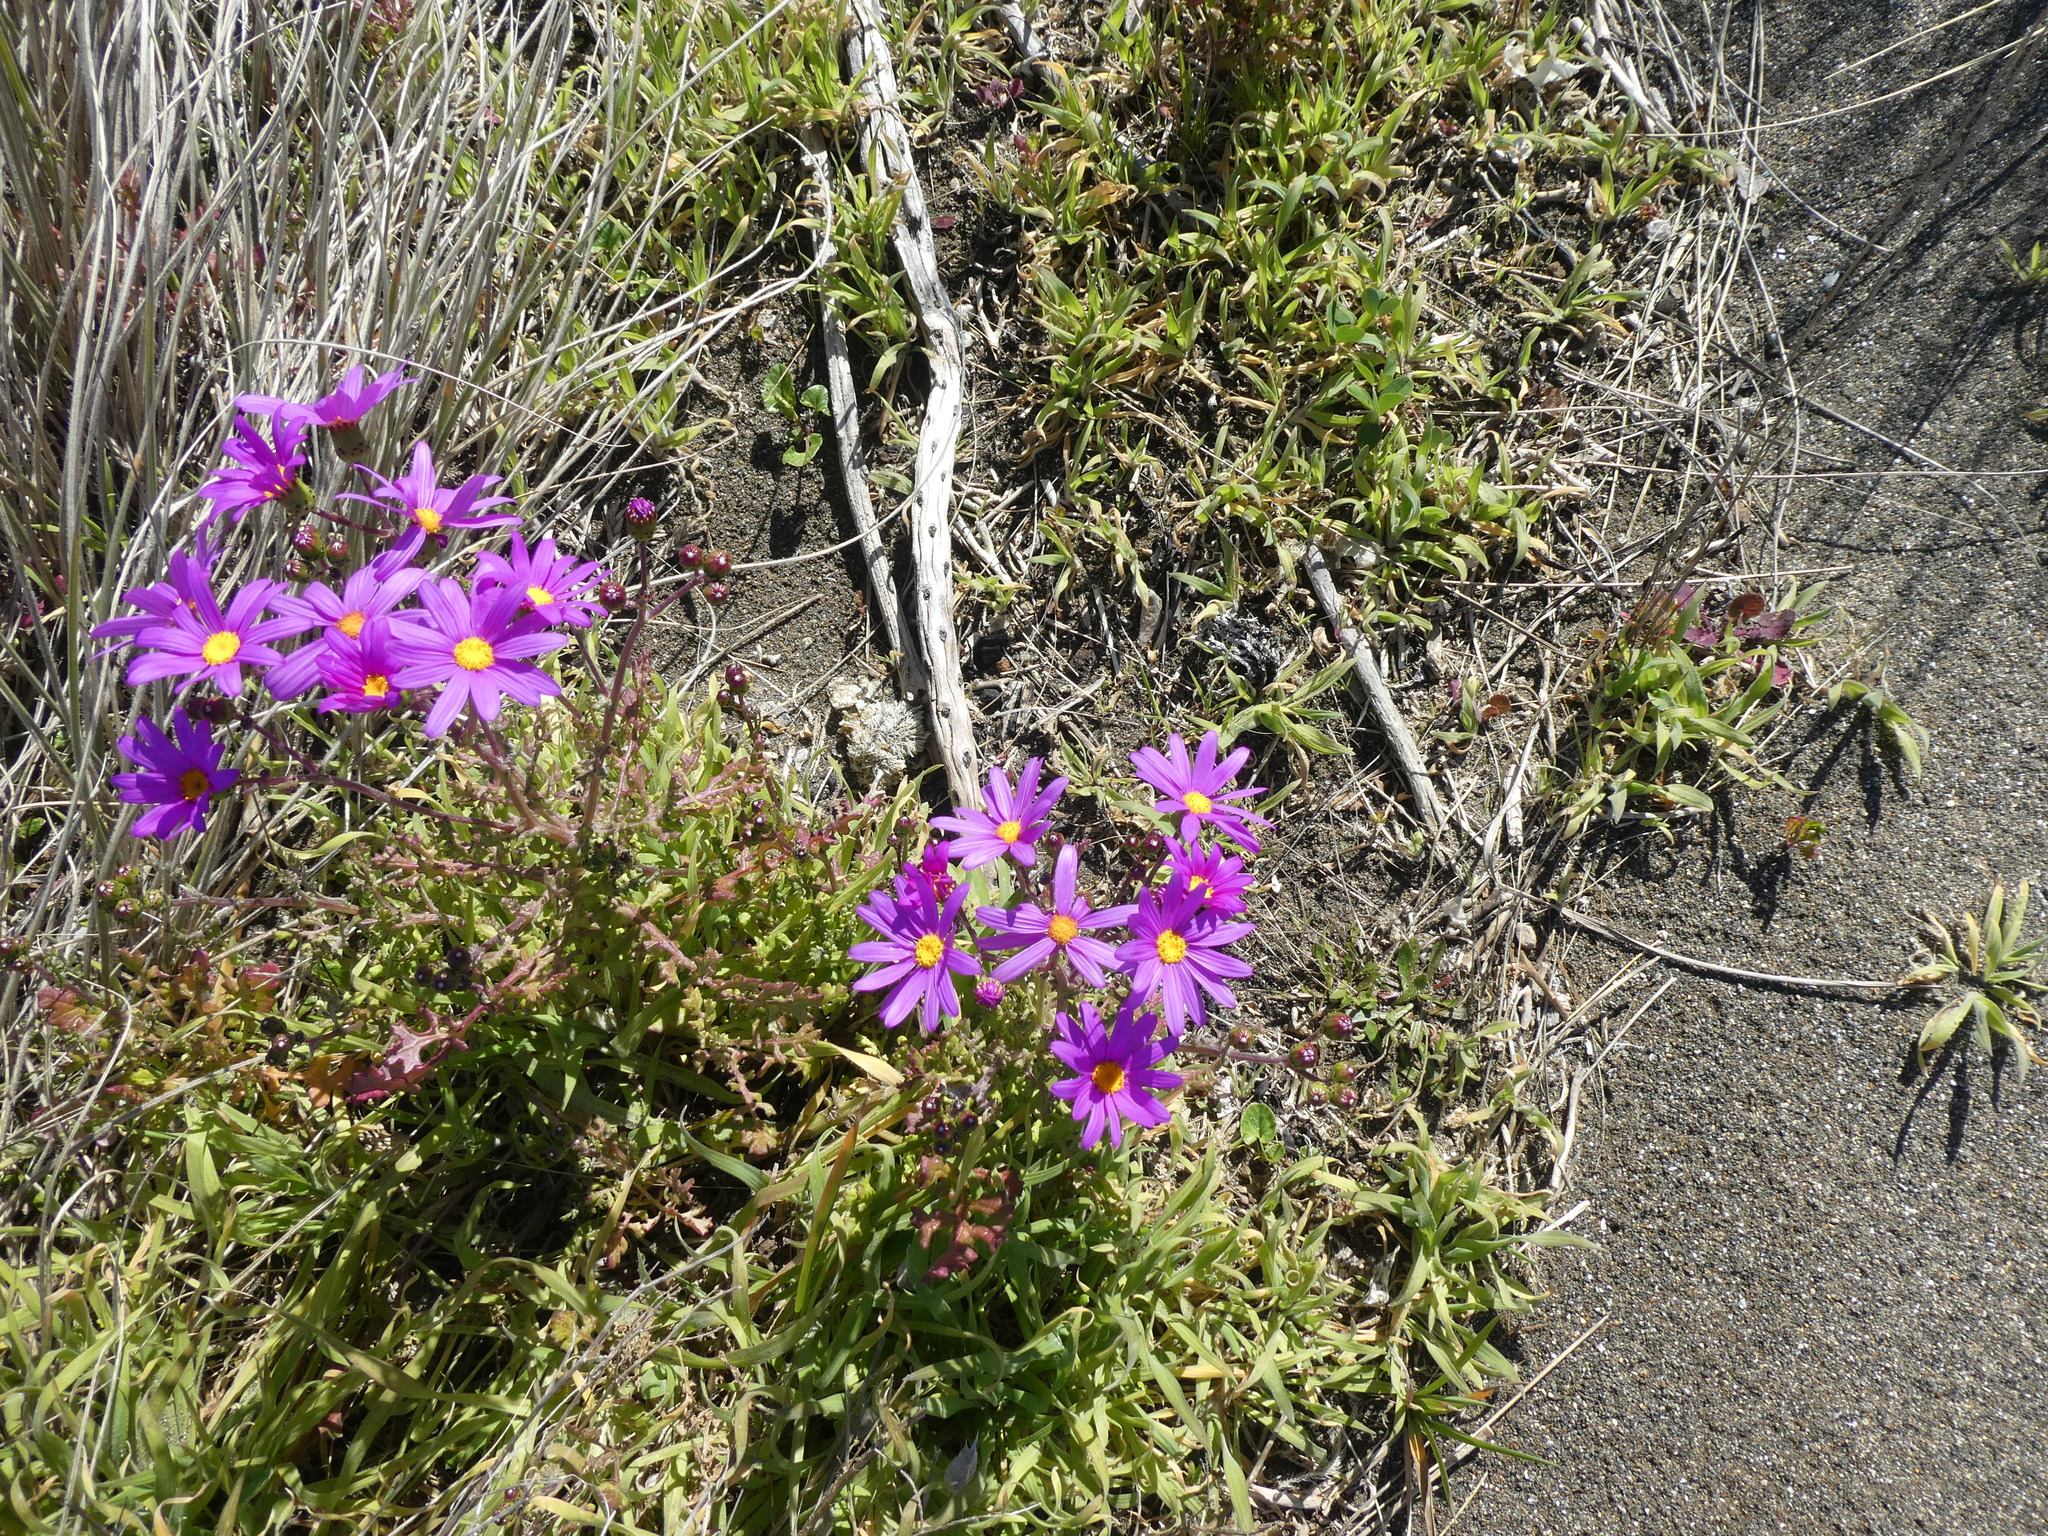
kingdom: Plantae
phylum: Tracheophyta
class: Magnoliopsida
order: Asterales
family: Asteraceae
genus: Senecio
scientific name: Senecio elegans
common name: Purple groundsel
